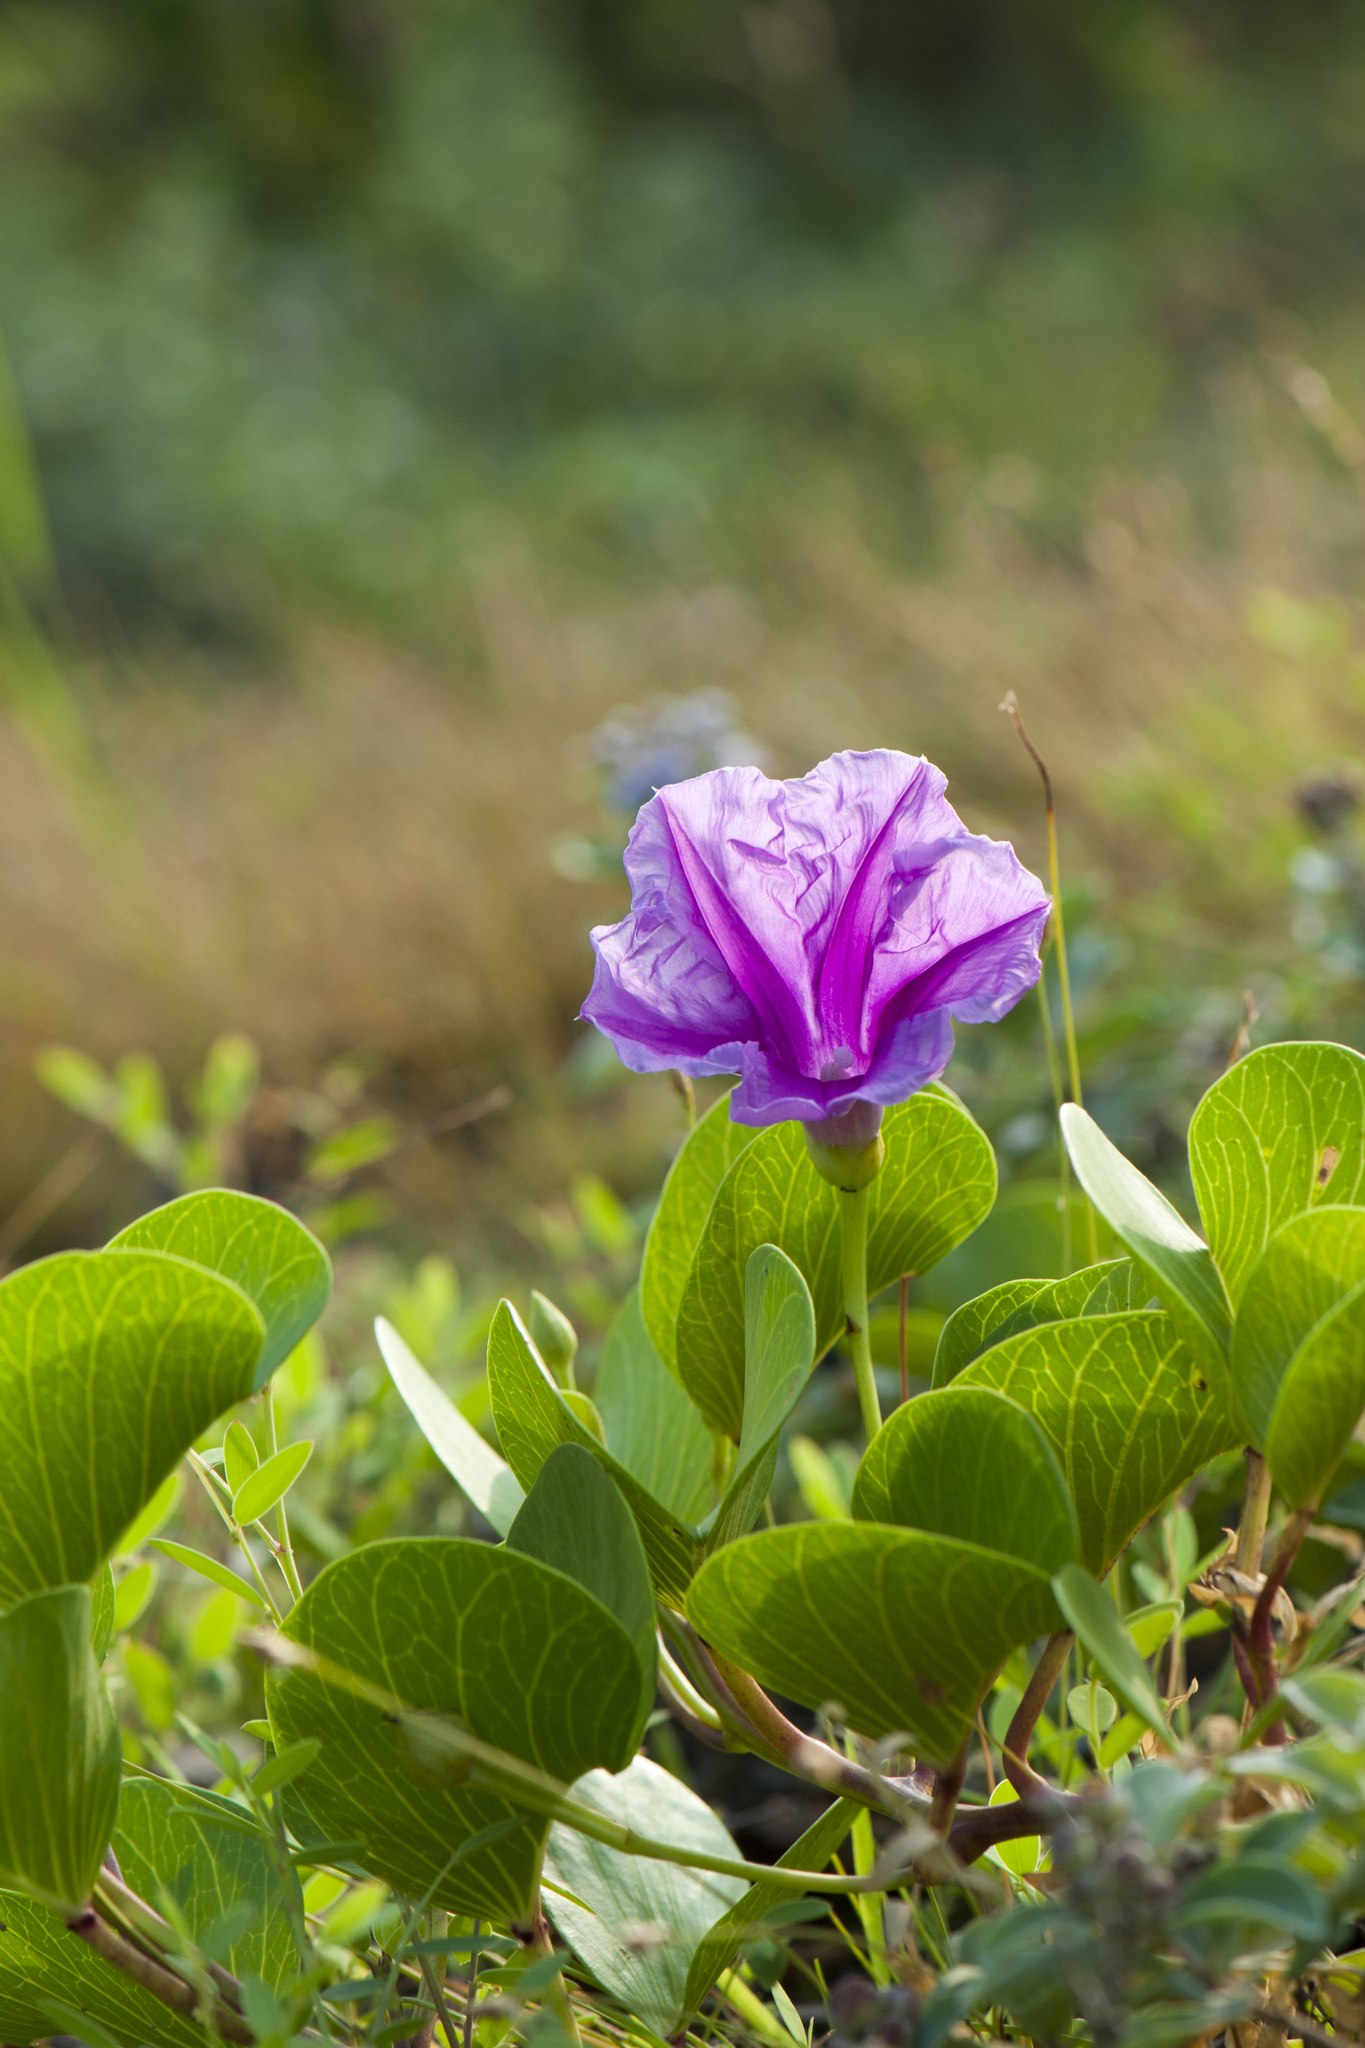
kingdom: Plantae
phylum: Tracheophyta
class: Magnoliopsida
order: Solanales
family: Convolvulaceae
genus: Ipomoea
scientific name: Ipomoea pes-caprae
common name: Beach morning glory
